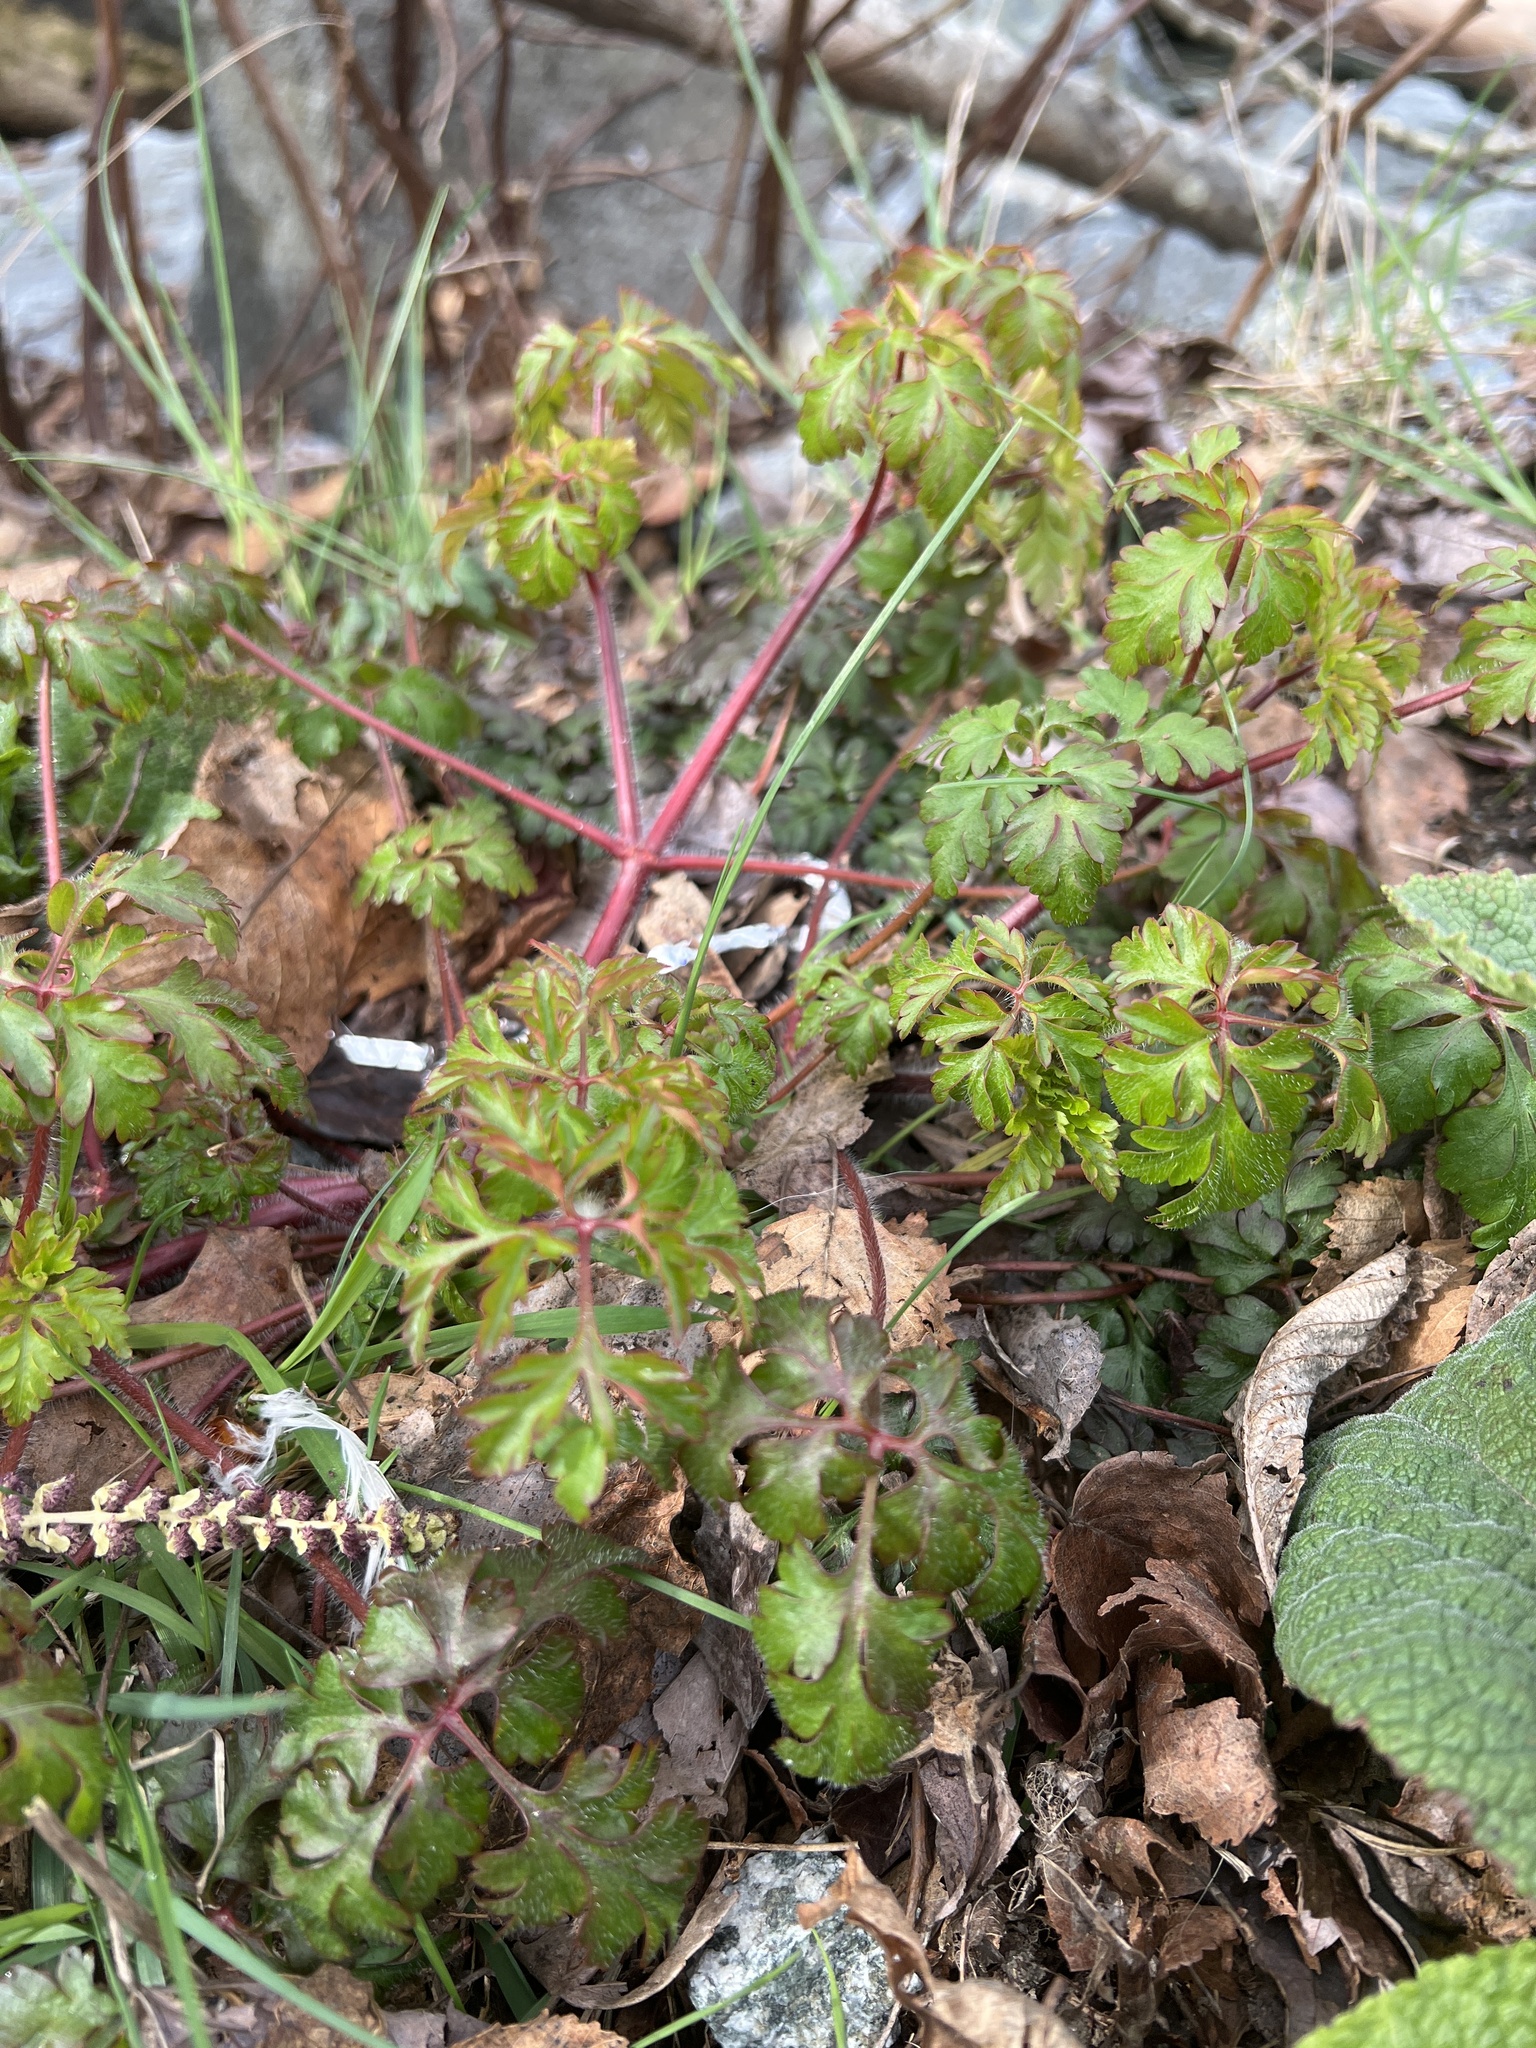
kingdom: Plantae
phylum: Tracheophyta
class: Magnoliopsida
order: Geraniales
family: Geraniaceae
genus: Geranium
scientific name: Geranium robertianum
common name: Herb-robert
